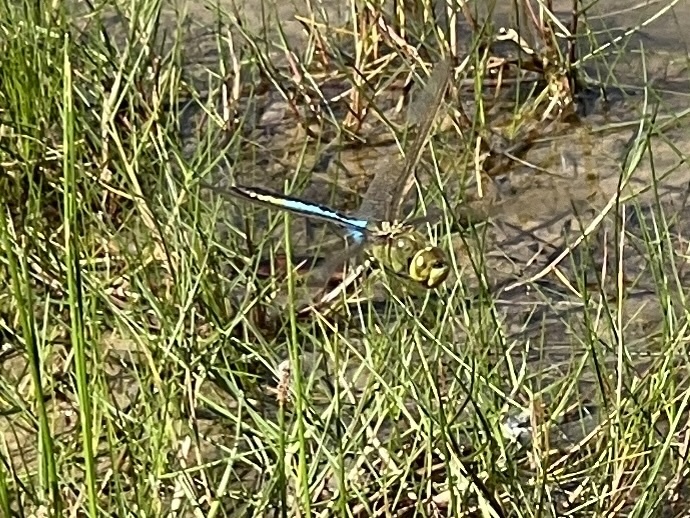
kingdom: Animalia
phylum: Arthropoda
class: Insecta
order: Odonata
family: Aeshnidae
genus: Anax
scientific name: Anax junius
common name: Common green darner
